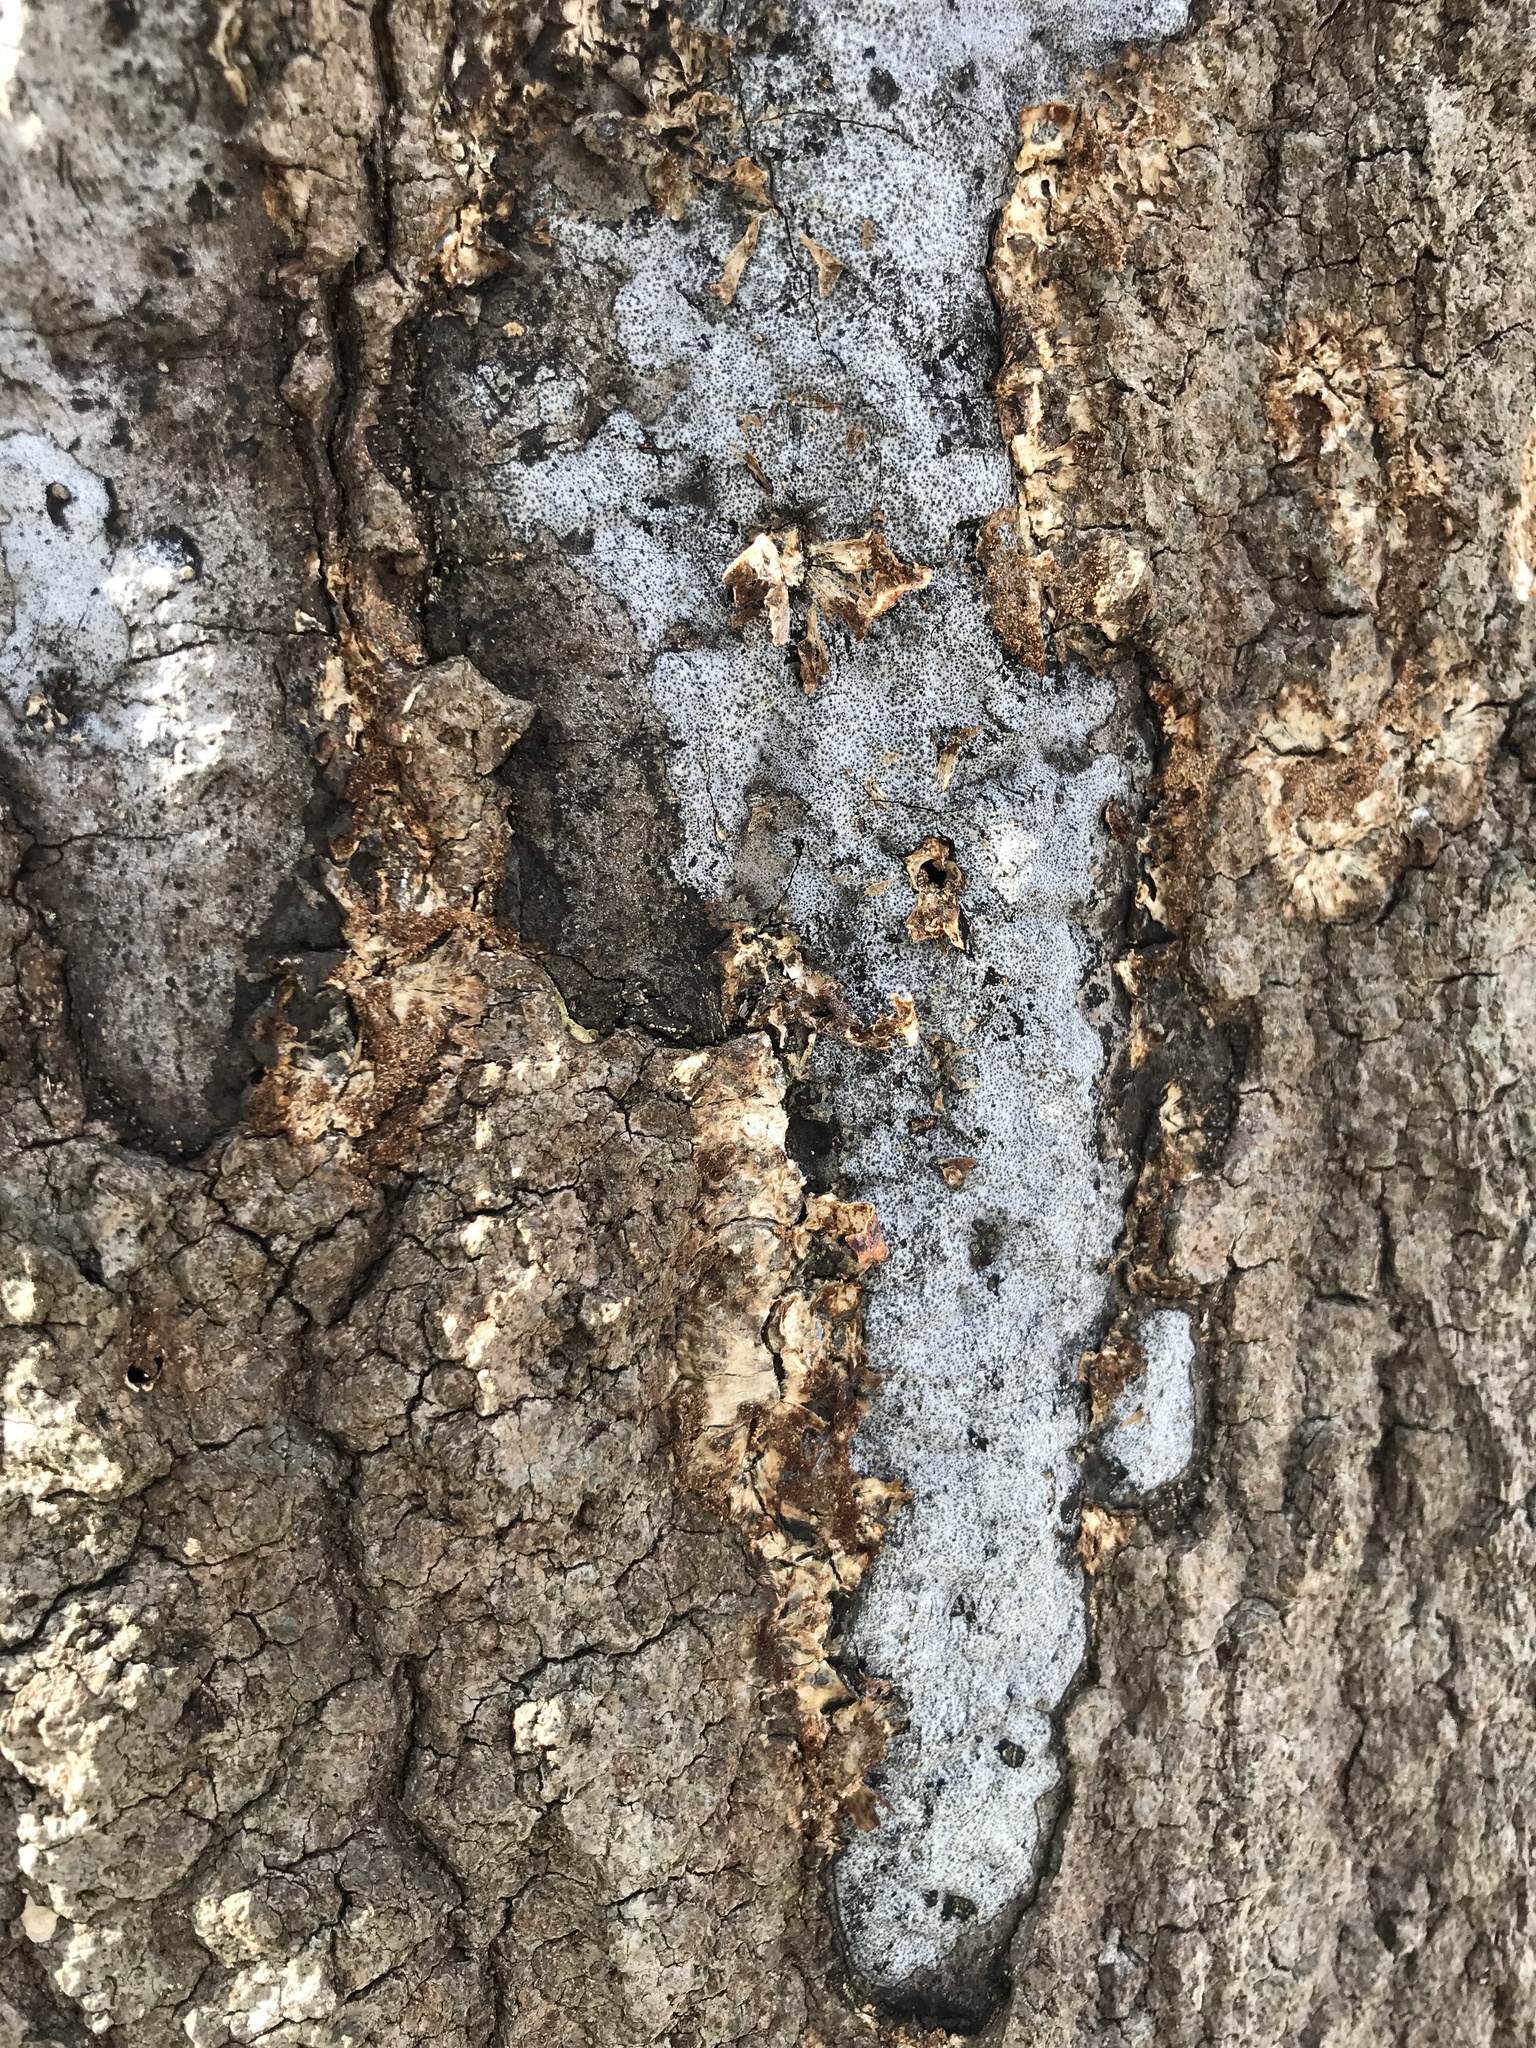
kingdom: Fungi
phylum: Ascomycota
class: Sordariomycetes
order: Xylariales
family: Graphostromataceae
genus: Biscogniauxia
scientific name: Biscogniauxia atropunctata
